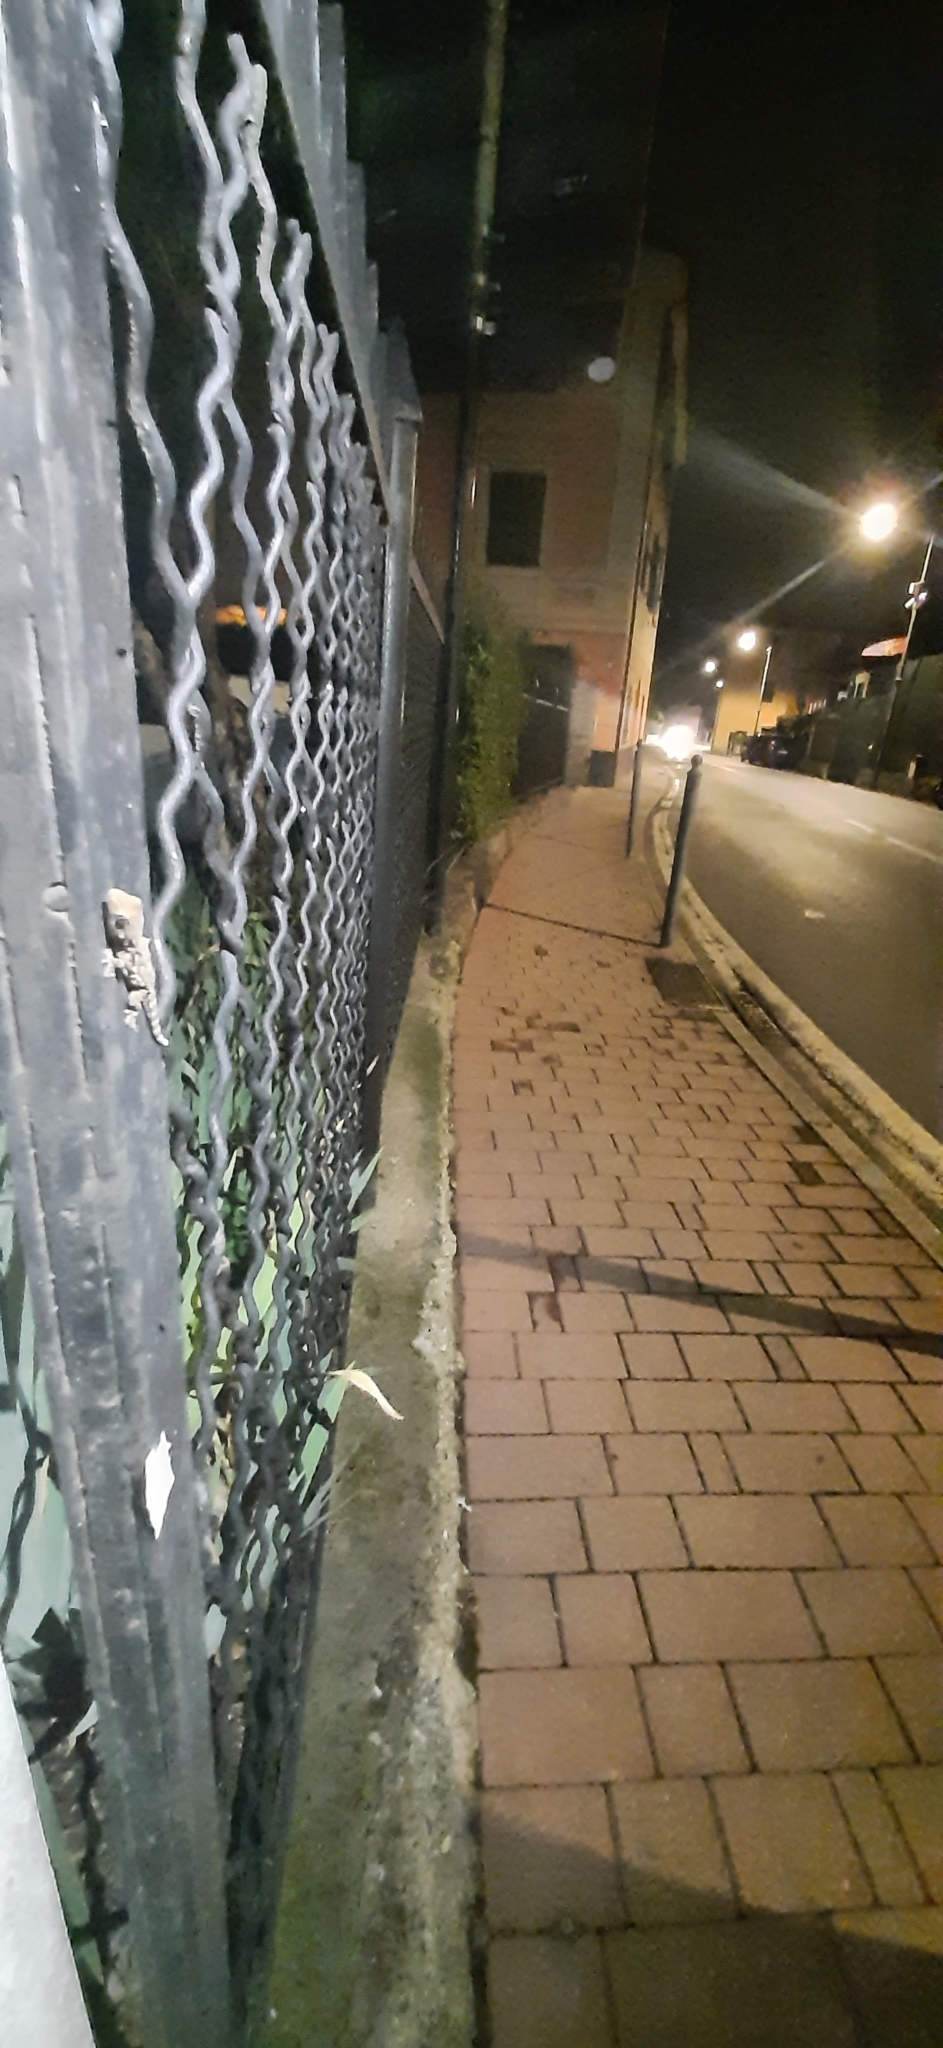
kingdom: Animalia
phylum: Chordata
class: Squamata
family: Phyllodactylidae
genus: Tarentola
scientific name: Tarentola mauritanica
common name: Moorish gecko
